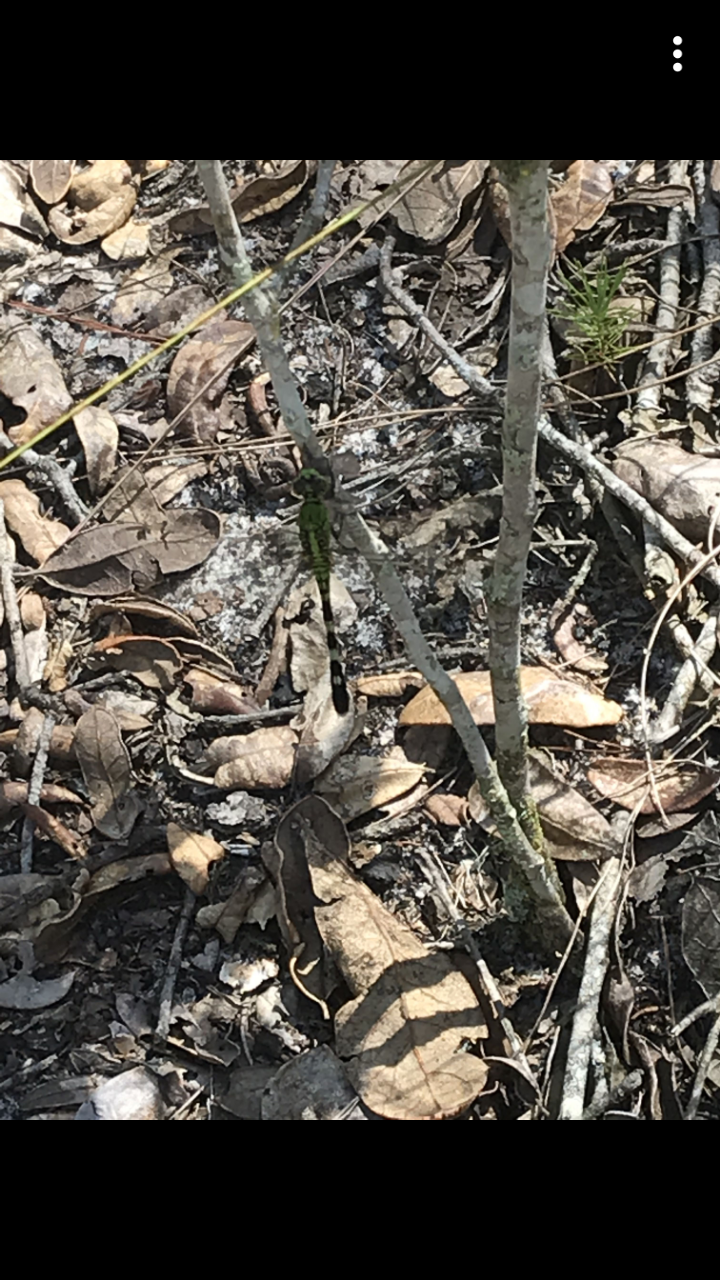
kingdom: Animalia
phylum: Arthropoda
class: Insecta
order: Odonata
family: Libellulidae
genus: Erythemis
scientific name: Erythemis simplicicollis
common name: Eastern pondhawk
